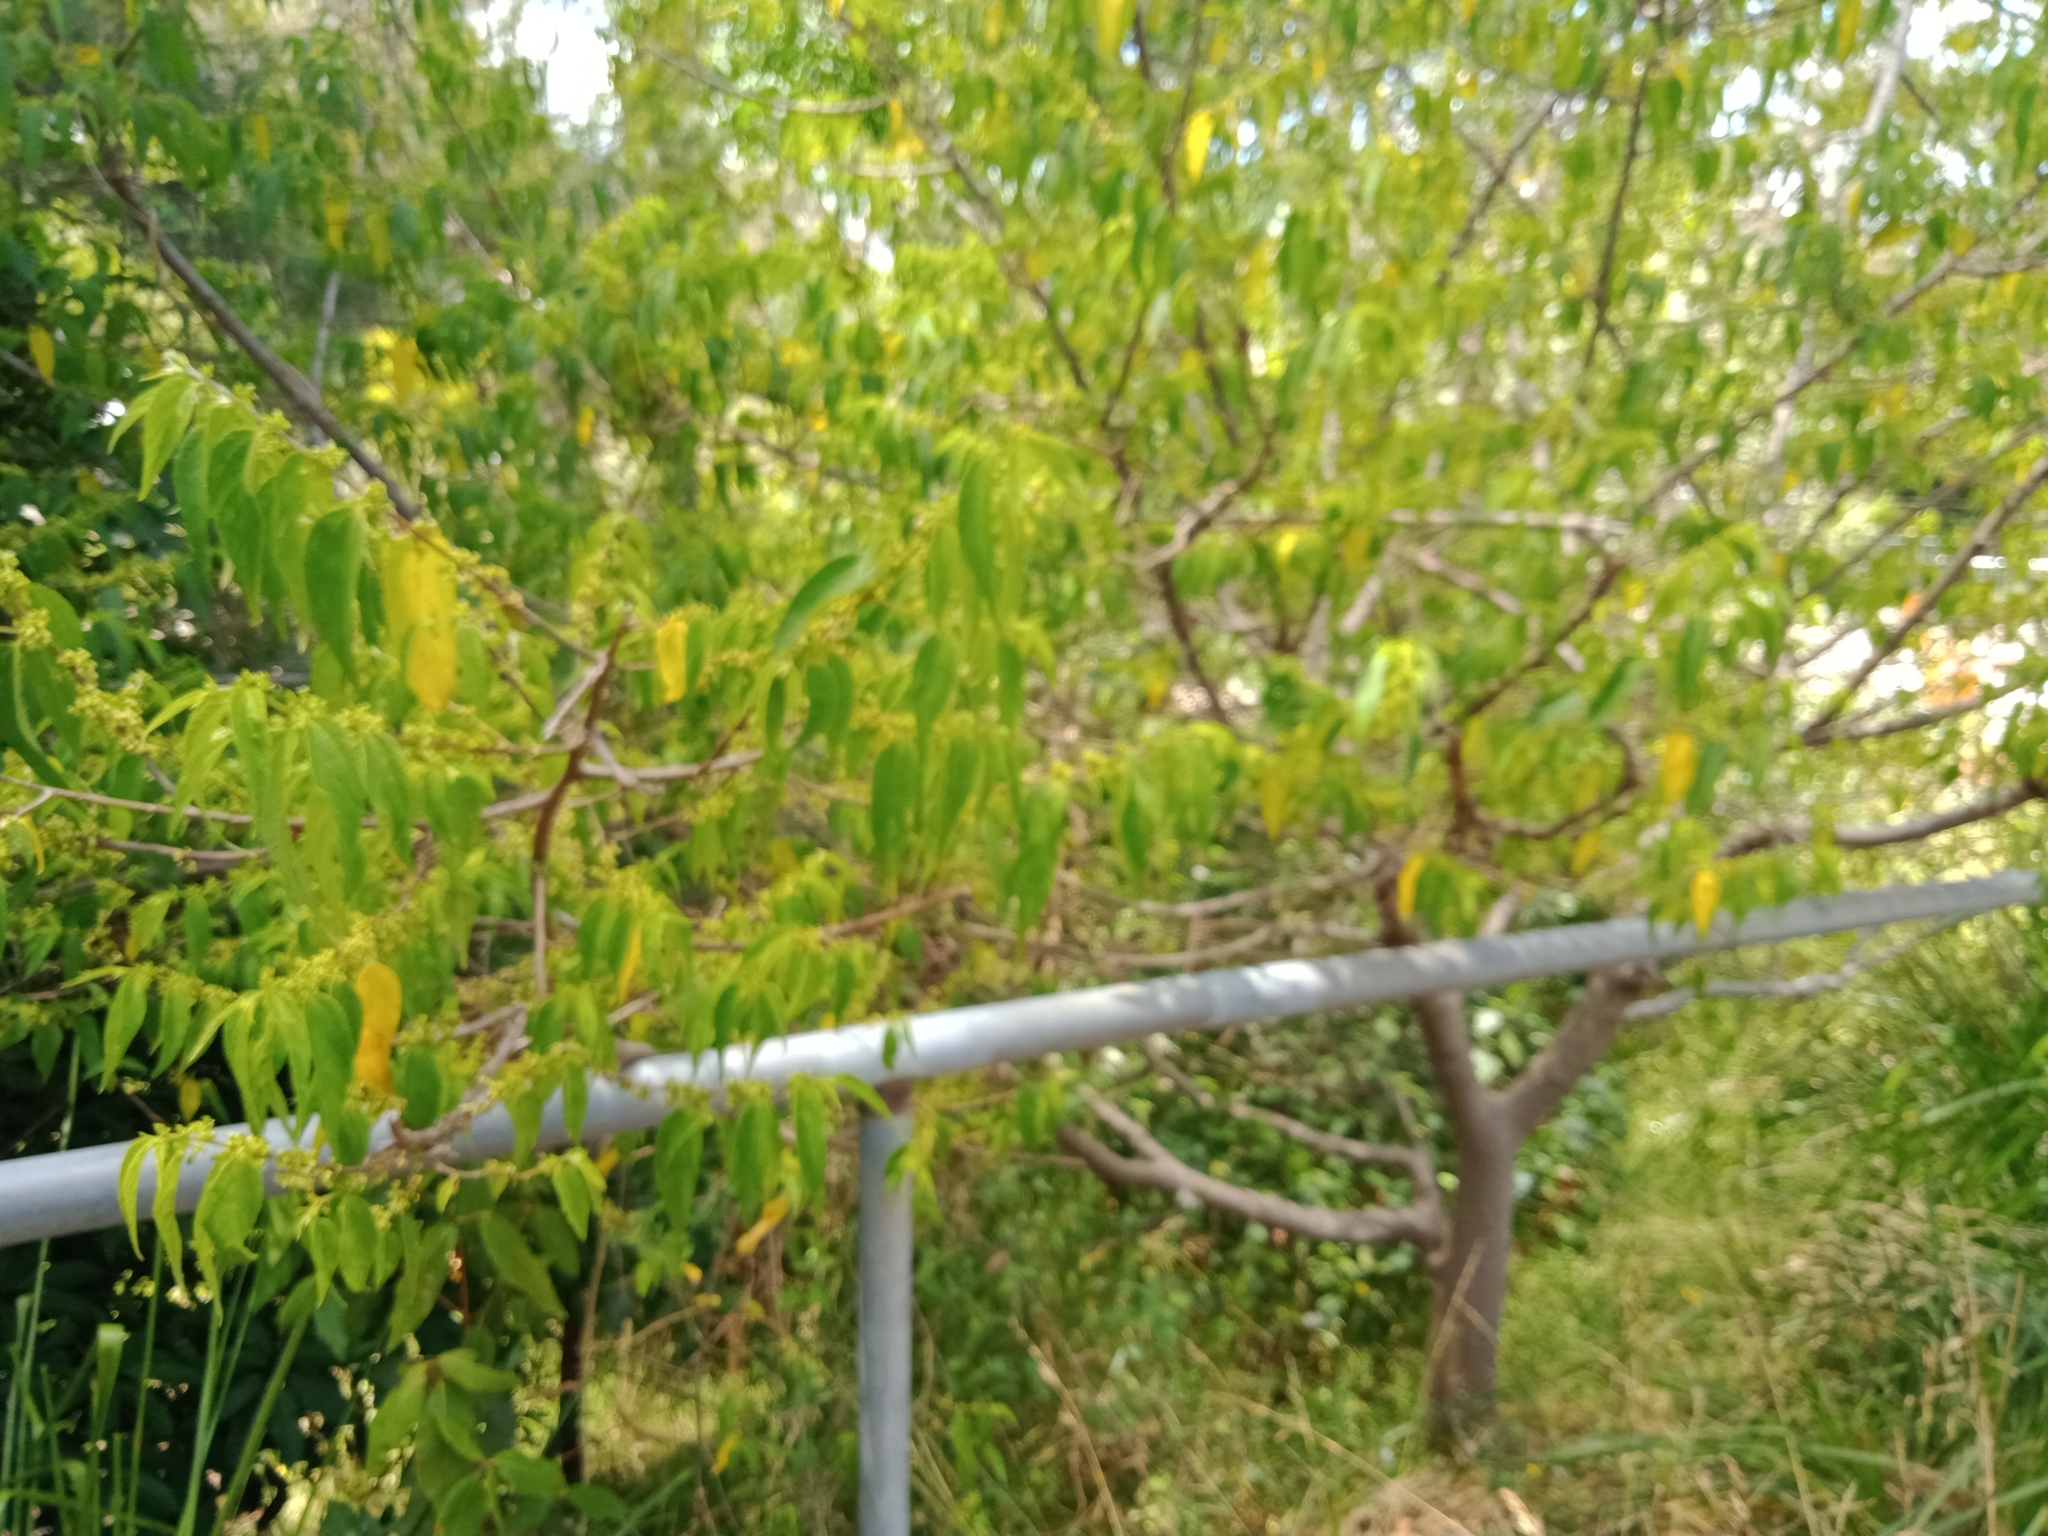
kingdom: Plantae
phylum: Tracheophyta
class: Magnoliopsida
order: Rosales
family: Cannabaceae
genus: Trema
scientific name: Trema tomentosum
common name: Peach-leaf-poisonbush
